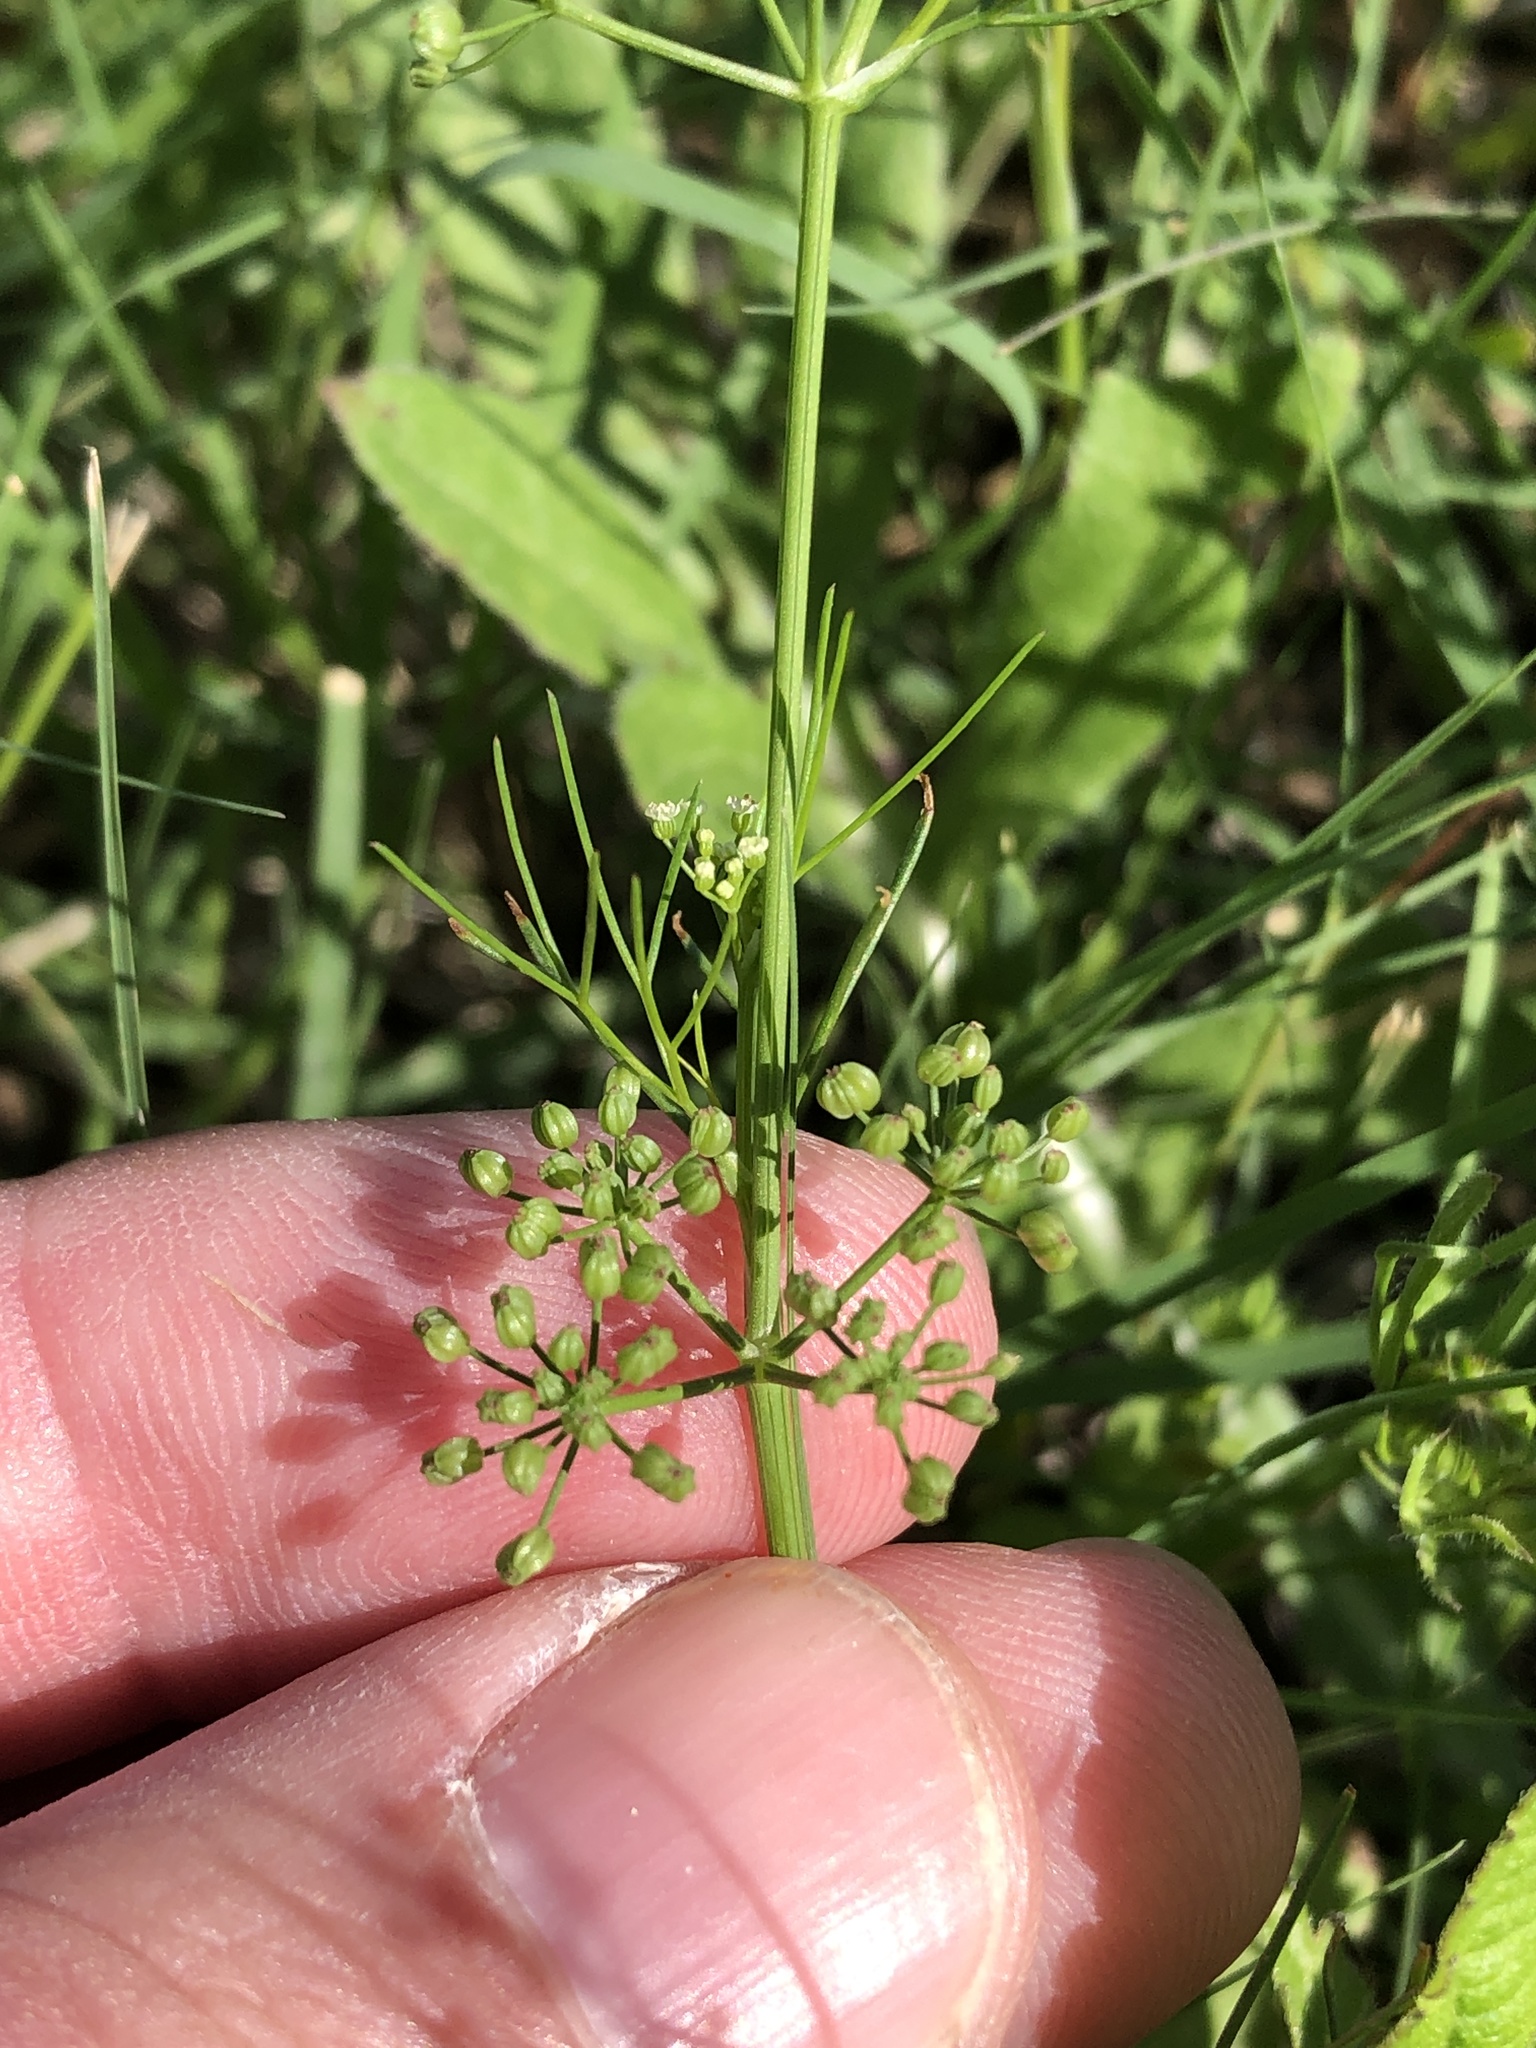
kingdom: Plantae
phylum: Tracheophyta
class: Magnoliopsida
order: Apiales
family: Apiaceae
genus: Cyclospermum
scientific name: Cyclospermum leptophyllum
